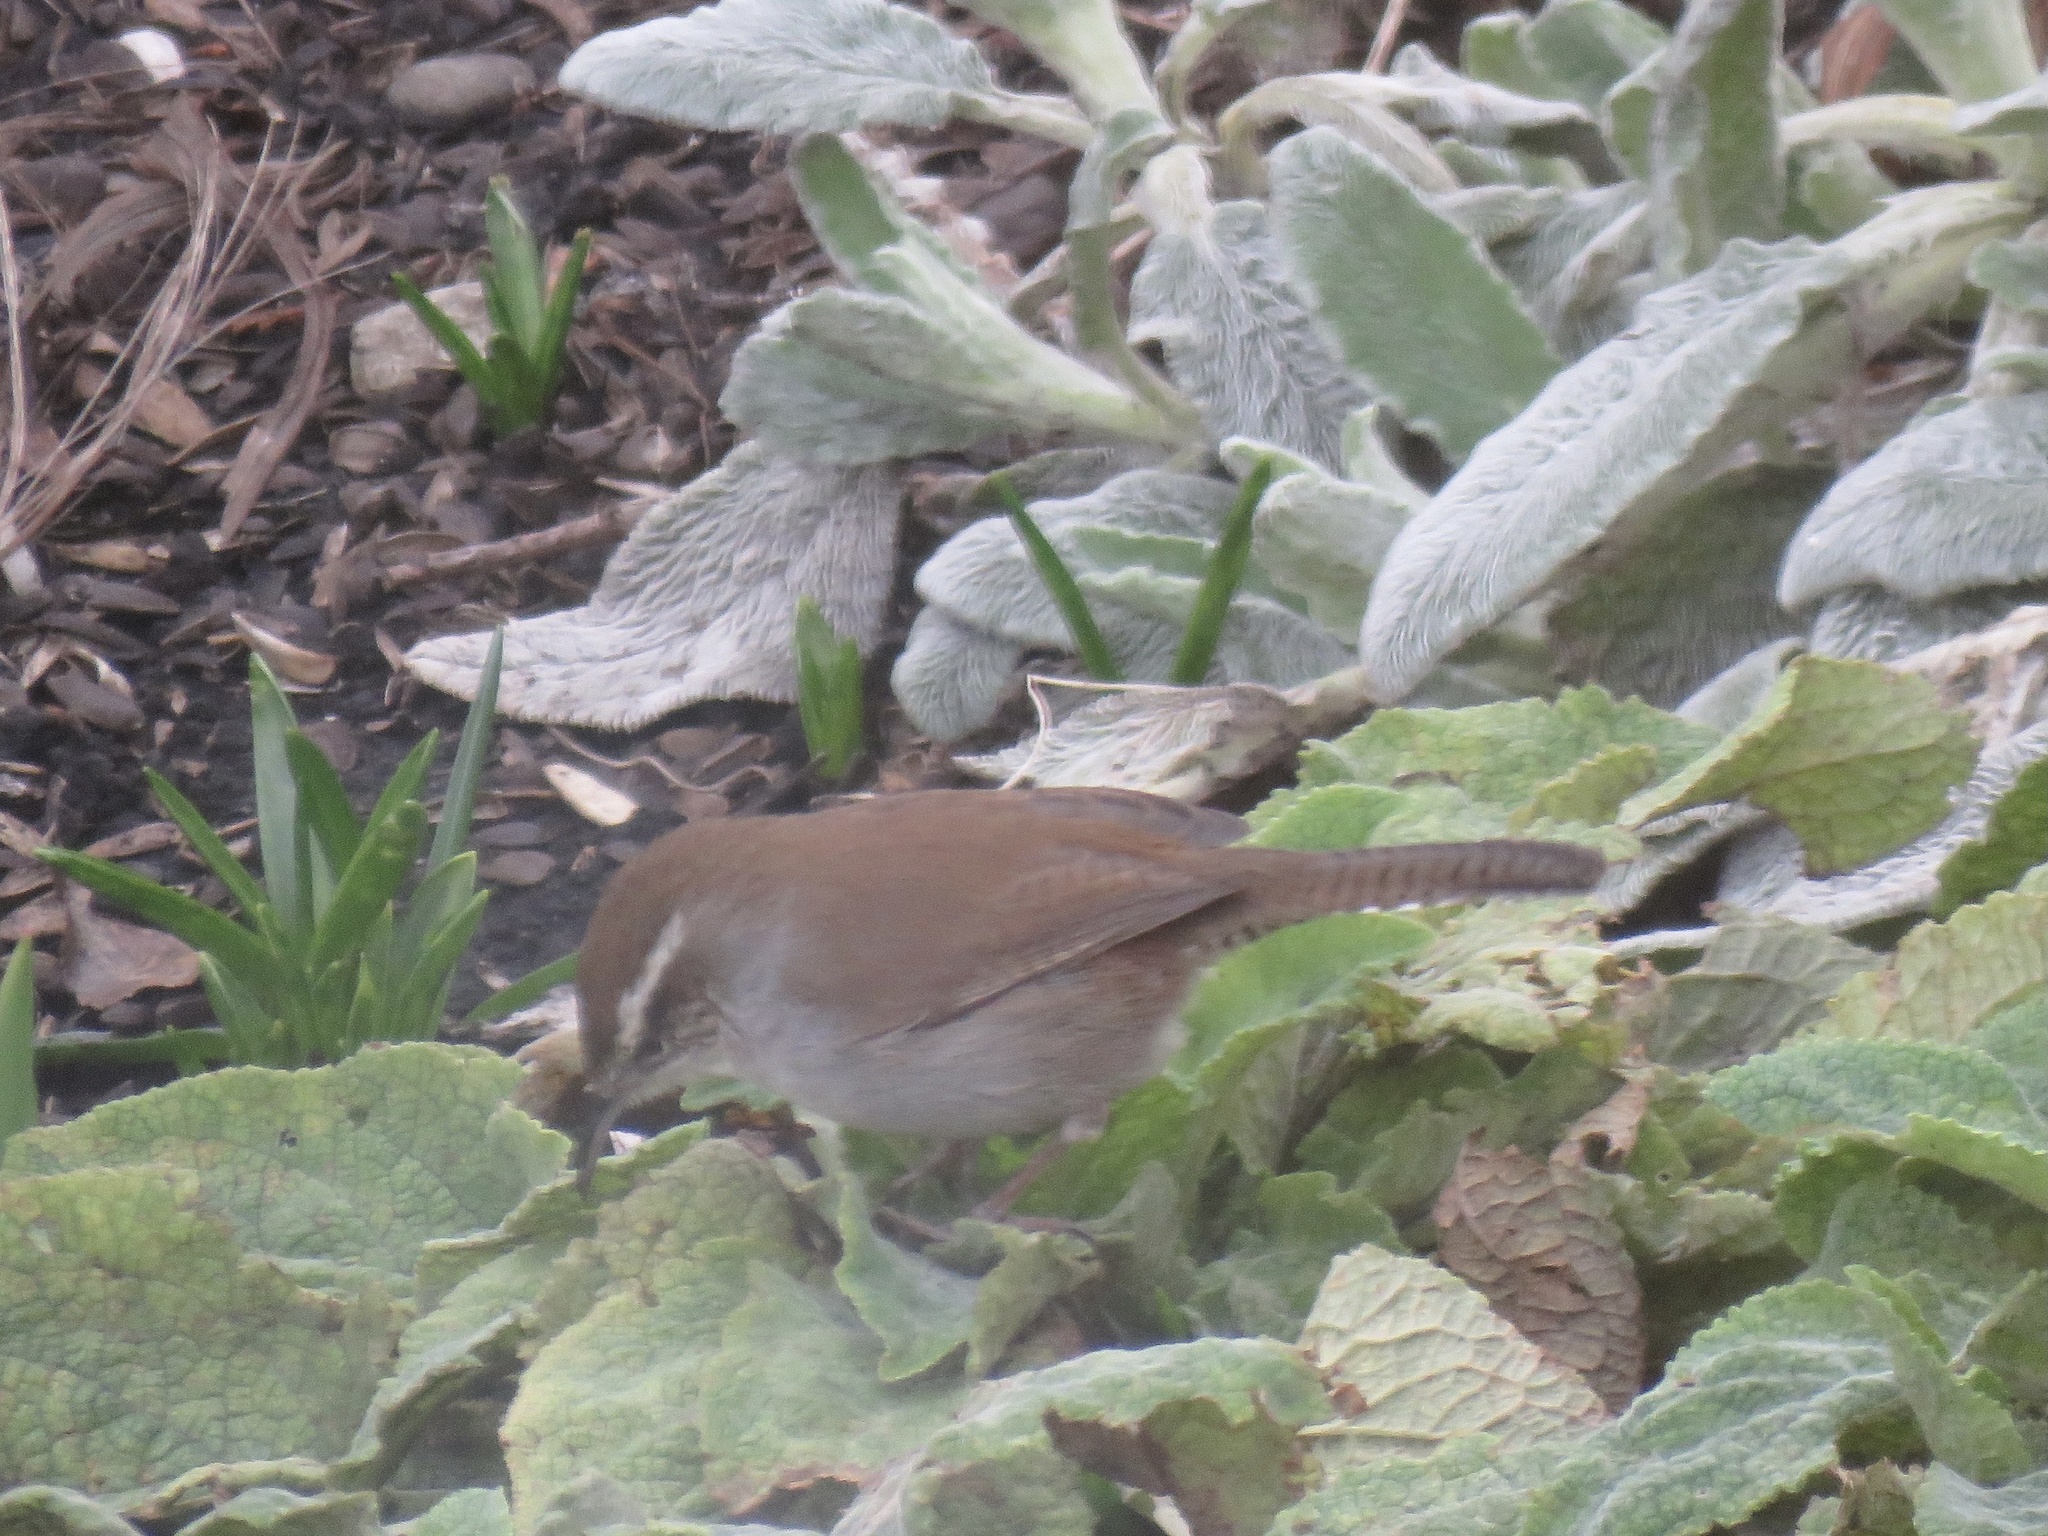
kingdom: Animalia
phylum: Chordata
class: Aves
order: Passeriformes
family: Troglodytidae
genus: Thryomanes
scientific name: Thryomanes bewickii
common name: Bewick's wren
